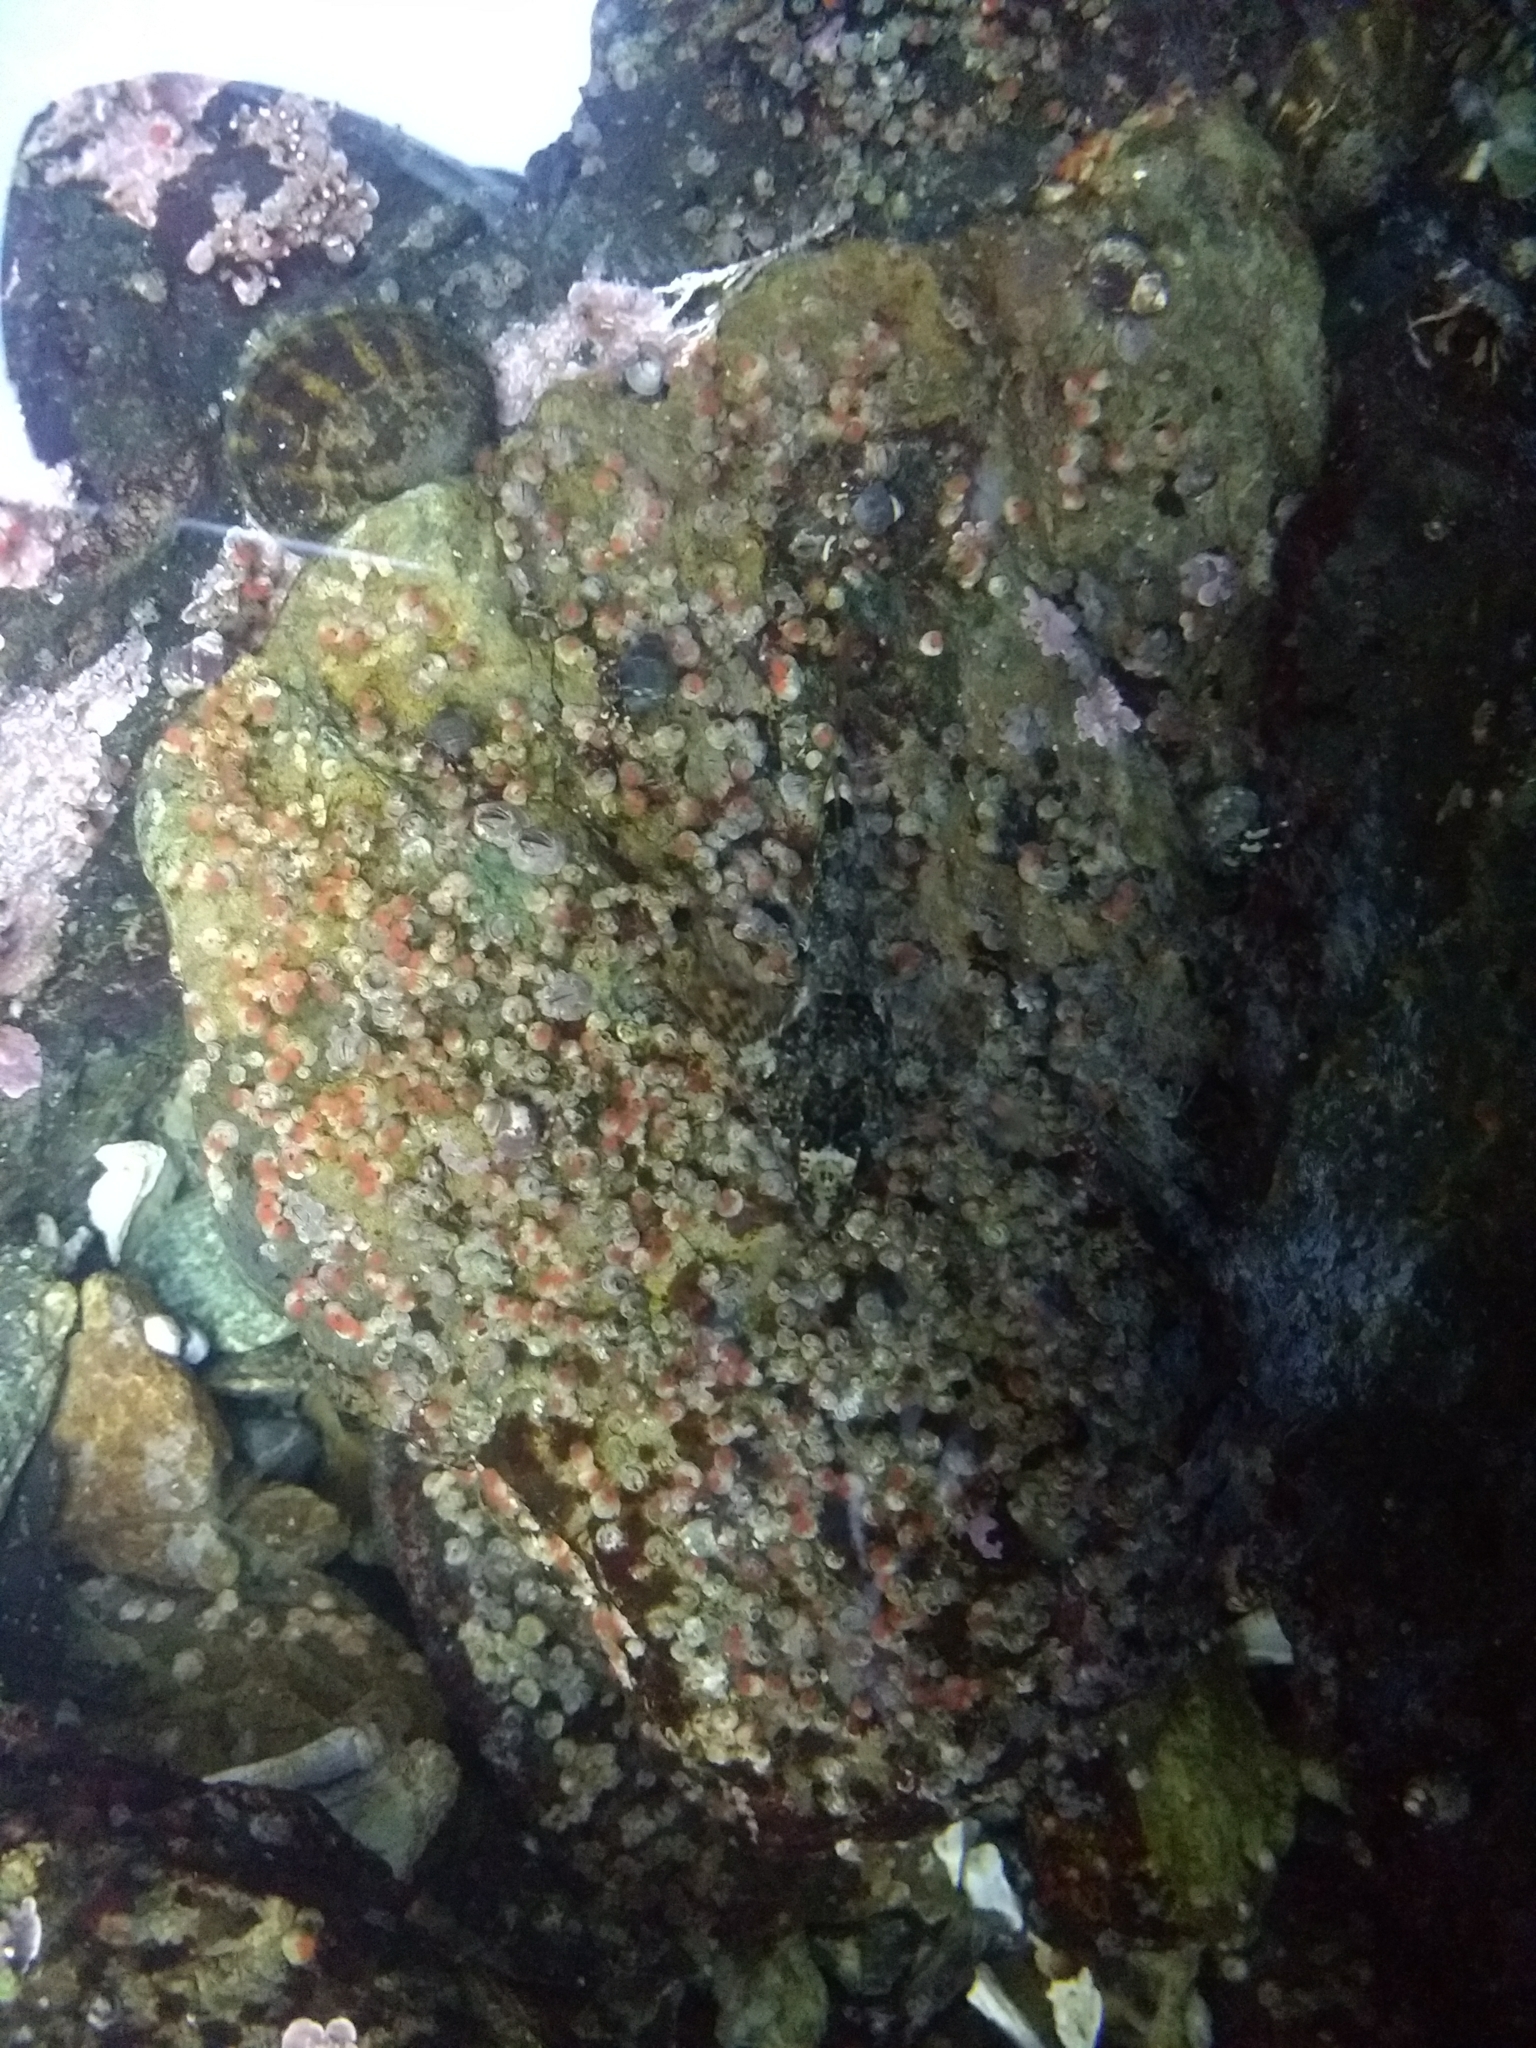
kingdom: Animalia
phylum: Chordata
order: Scorpaeniformes
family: Cottidae
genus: Oligocottus
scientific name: Oligocottus maculosus
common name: Tidepool sculpin
